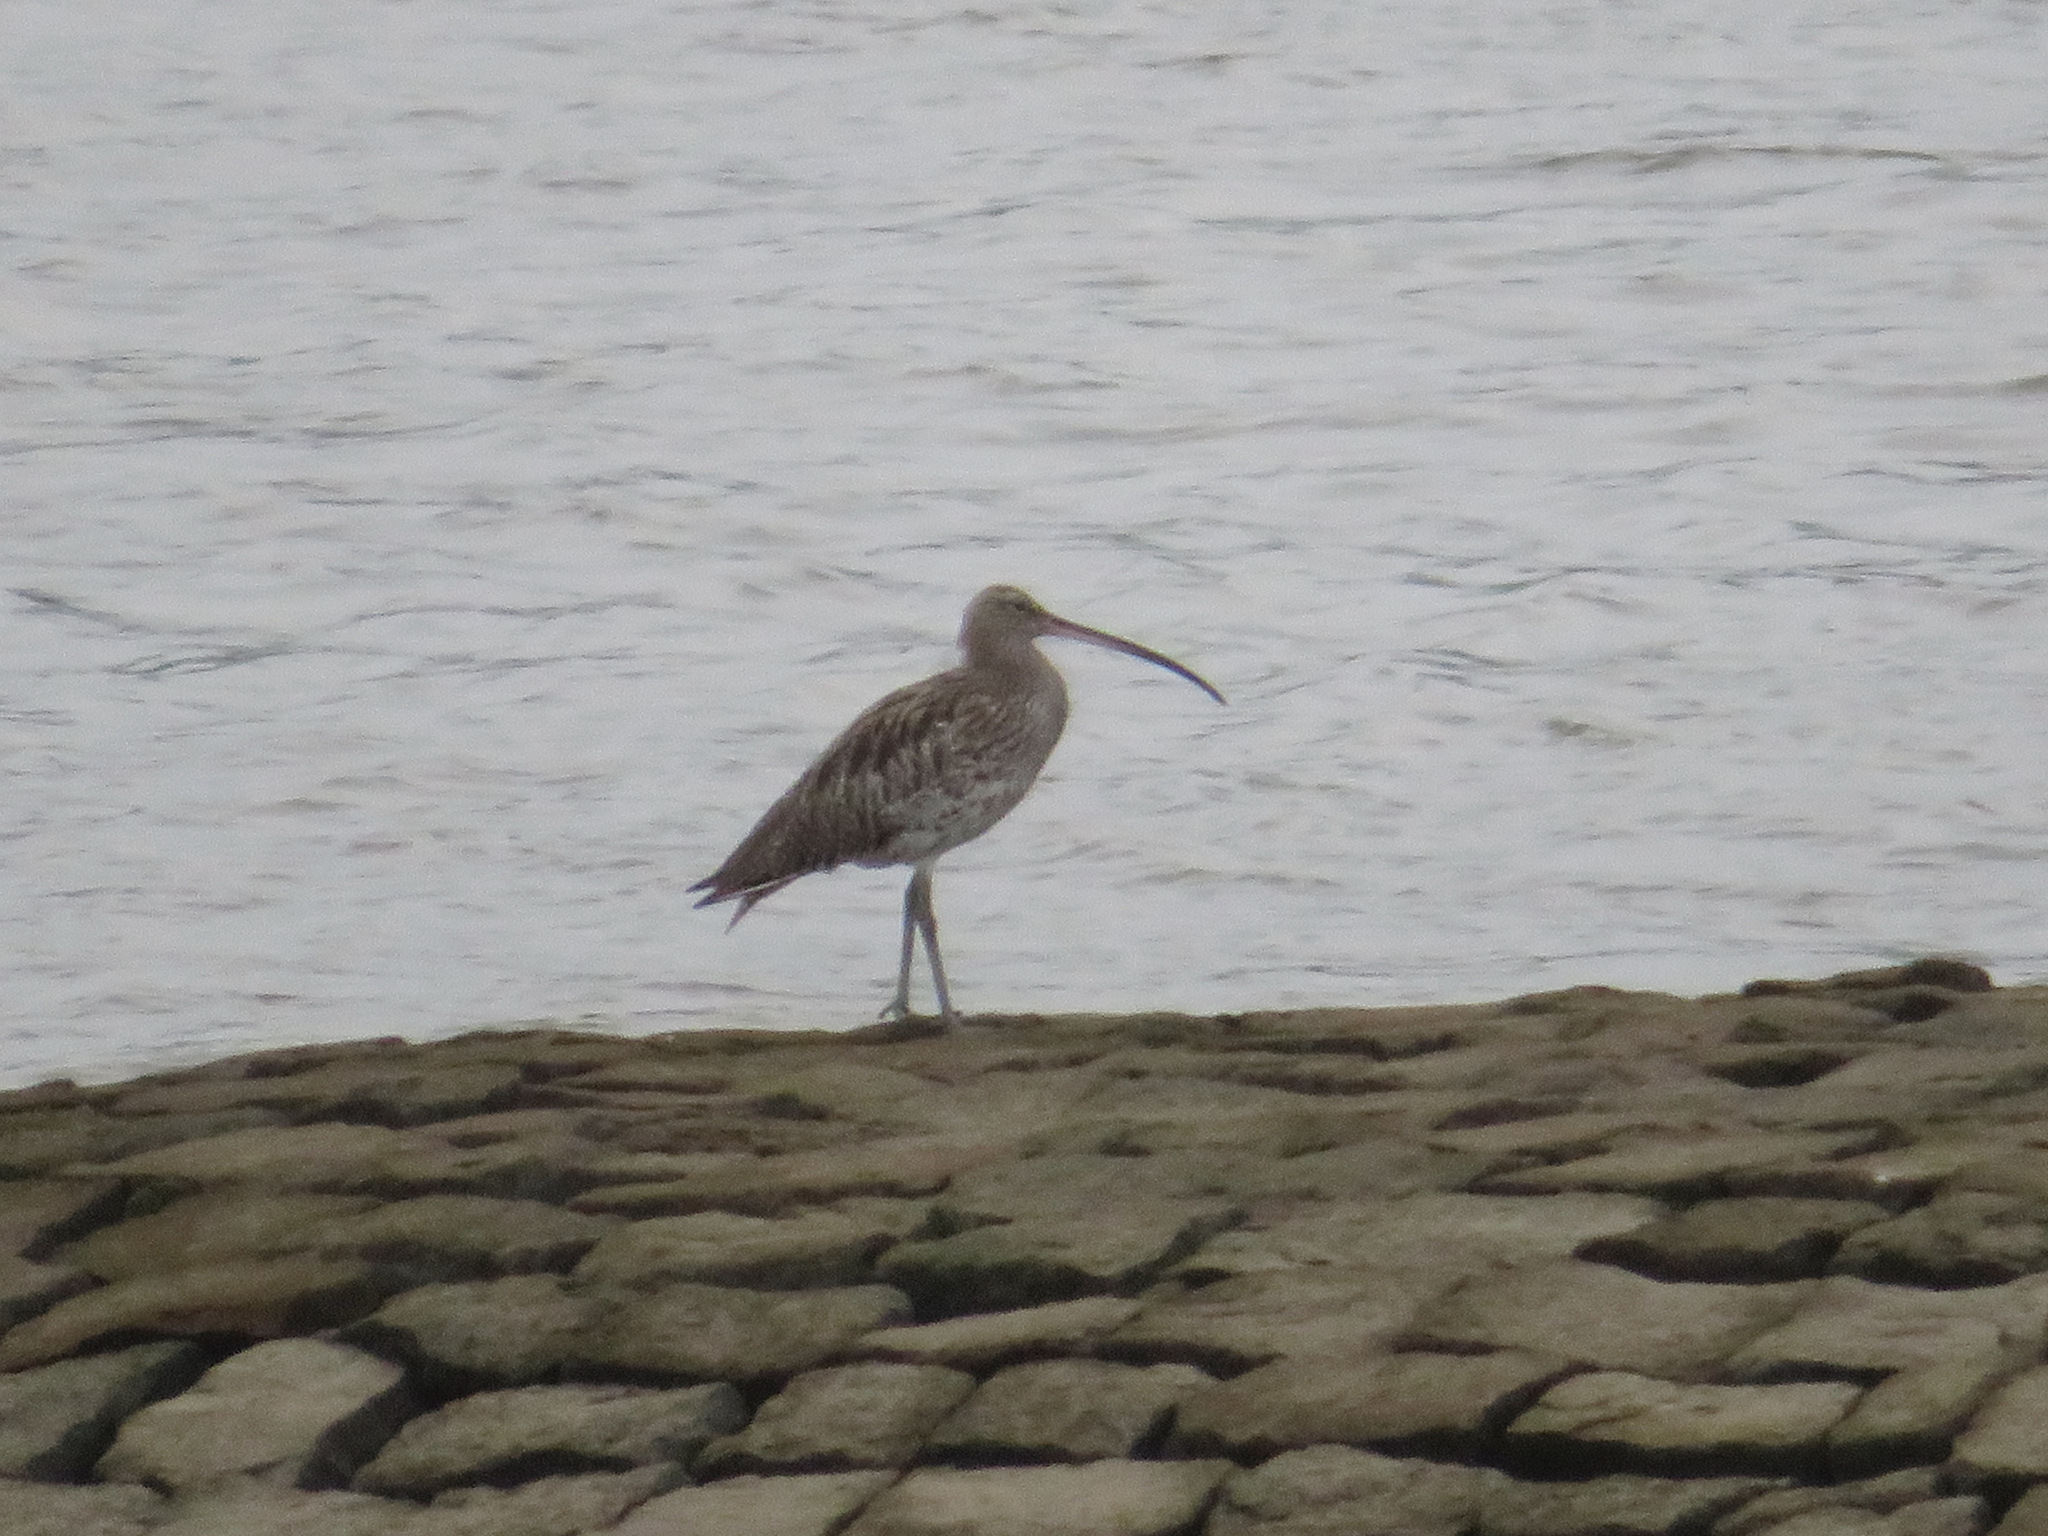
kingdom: Animalia
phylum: Chordata
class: Aves
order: Charadriiformes
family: Scolopacidae
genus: Numenius
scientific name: Numenius arquata
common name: Eurasian curlew
